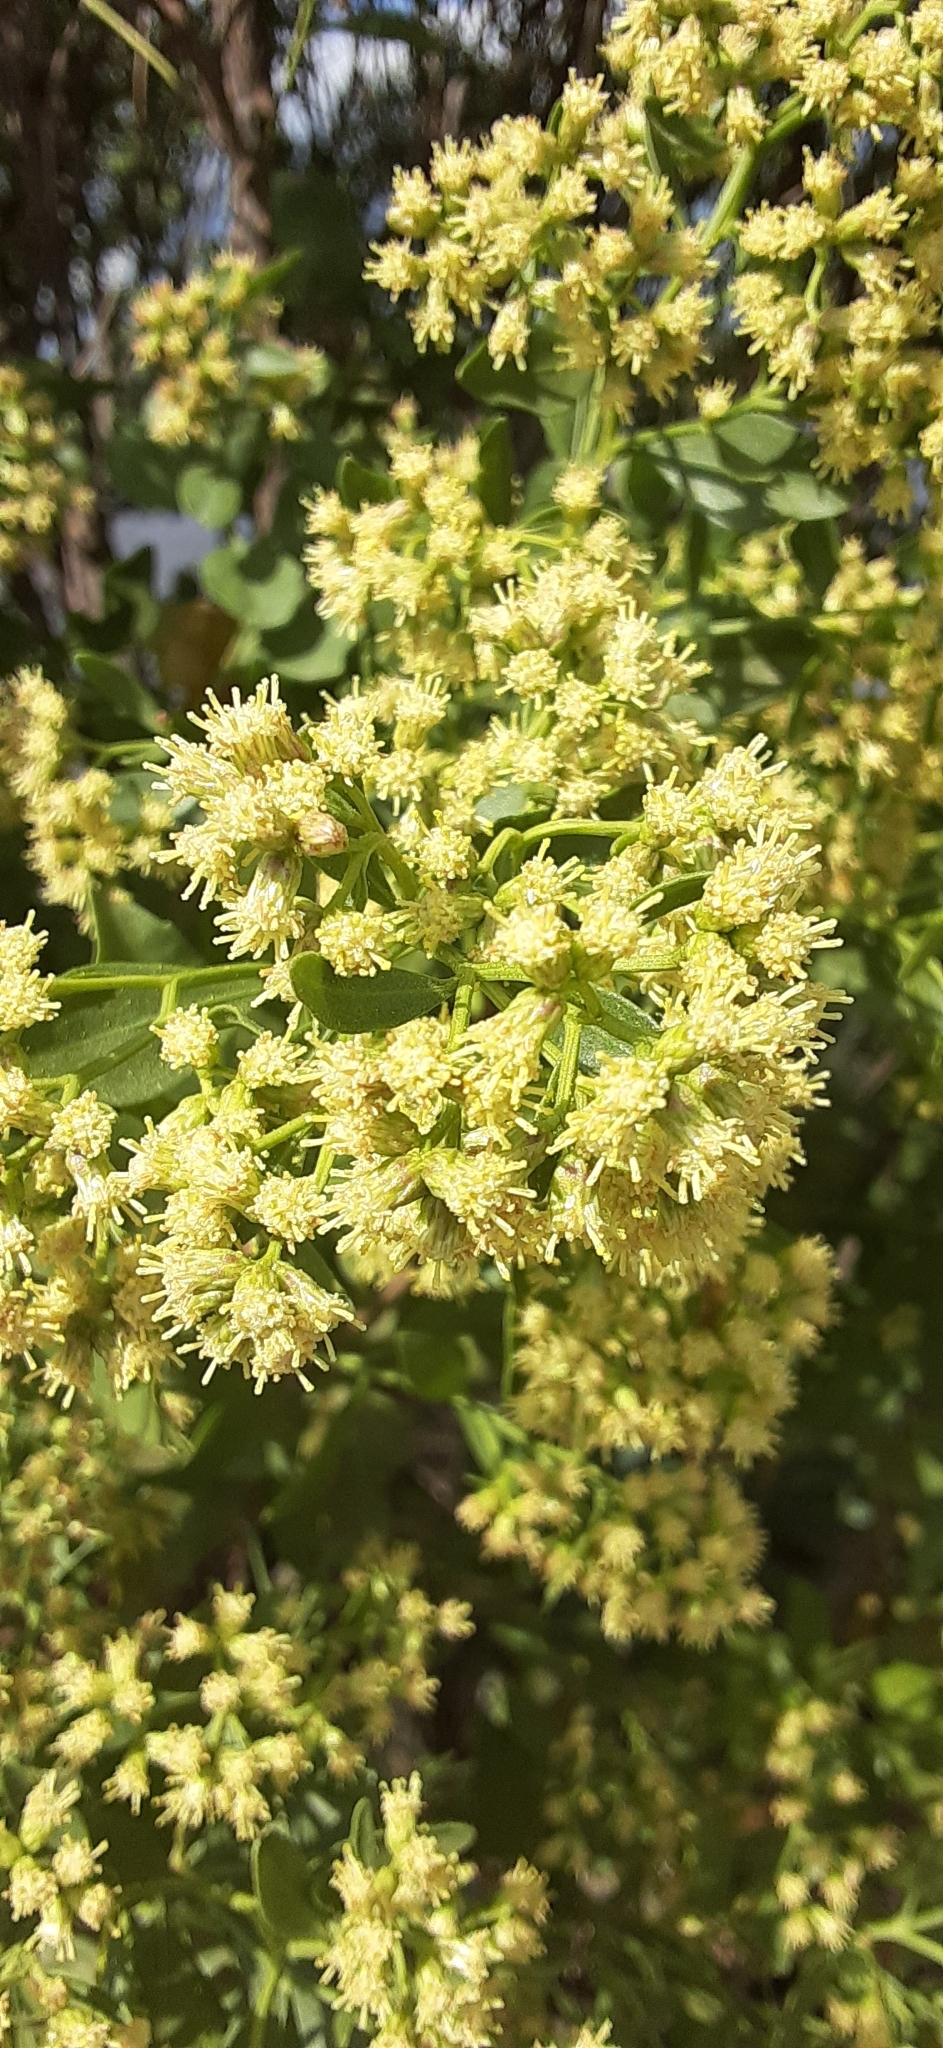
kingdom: Plantae
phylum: Tracheophyta
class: Magnoliopsida
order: Asterales
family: Asteraceae
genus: Baccharis
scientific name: Baccharis halimifolia
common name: Eastern baccharis
